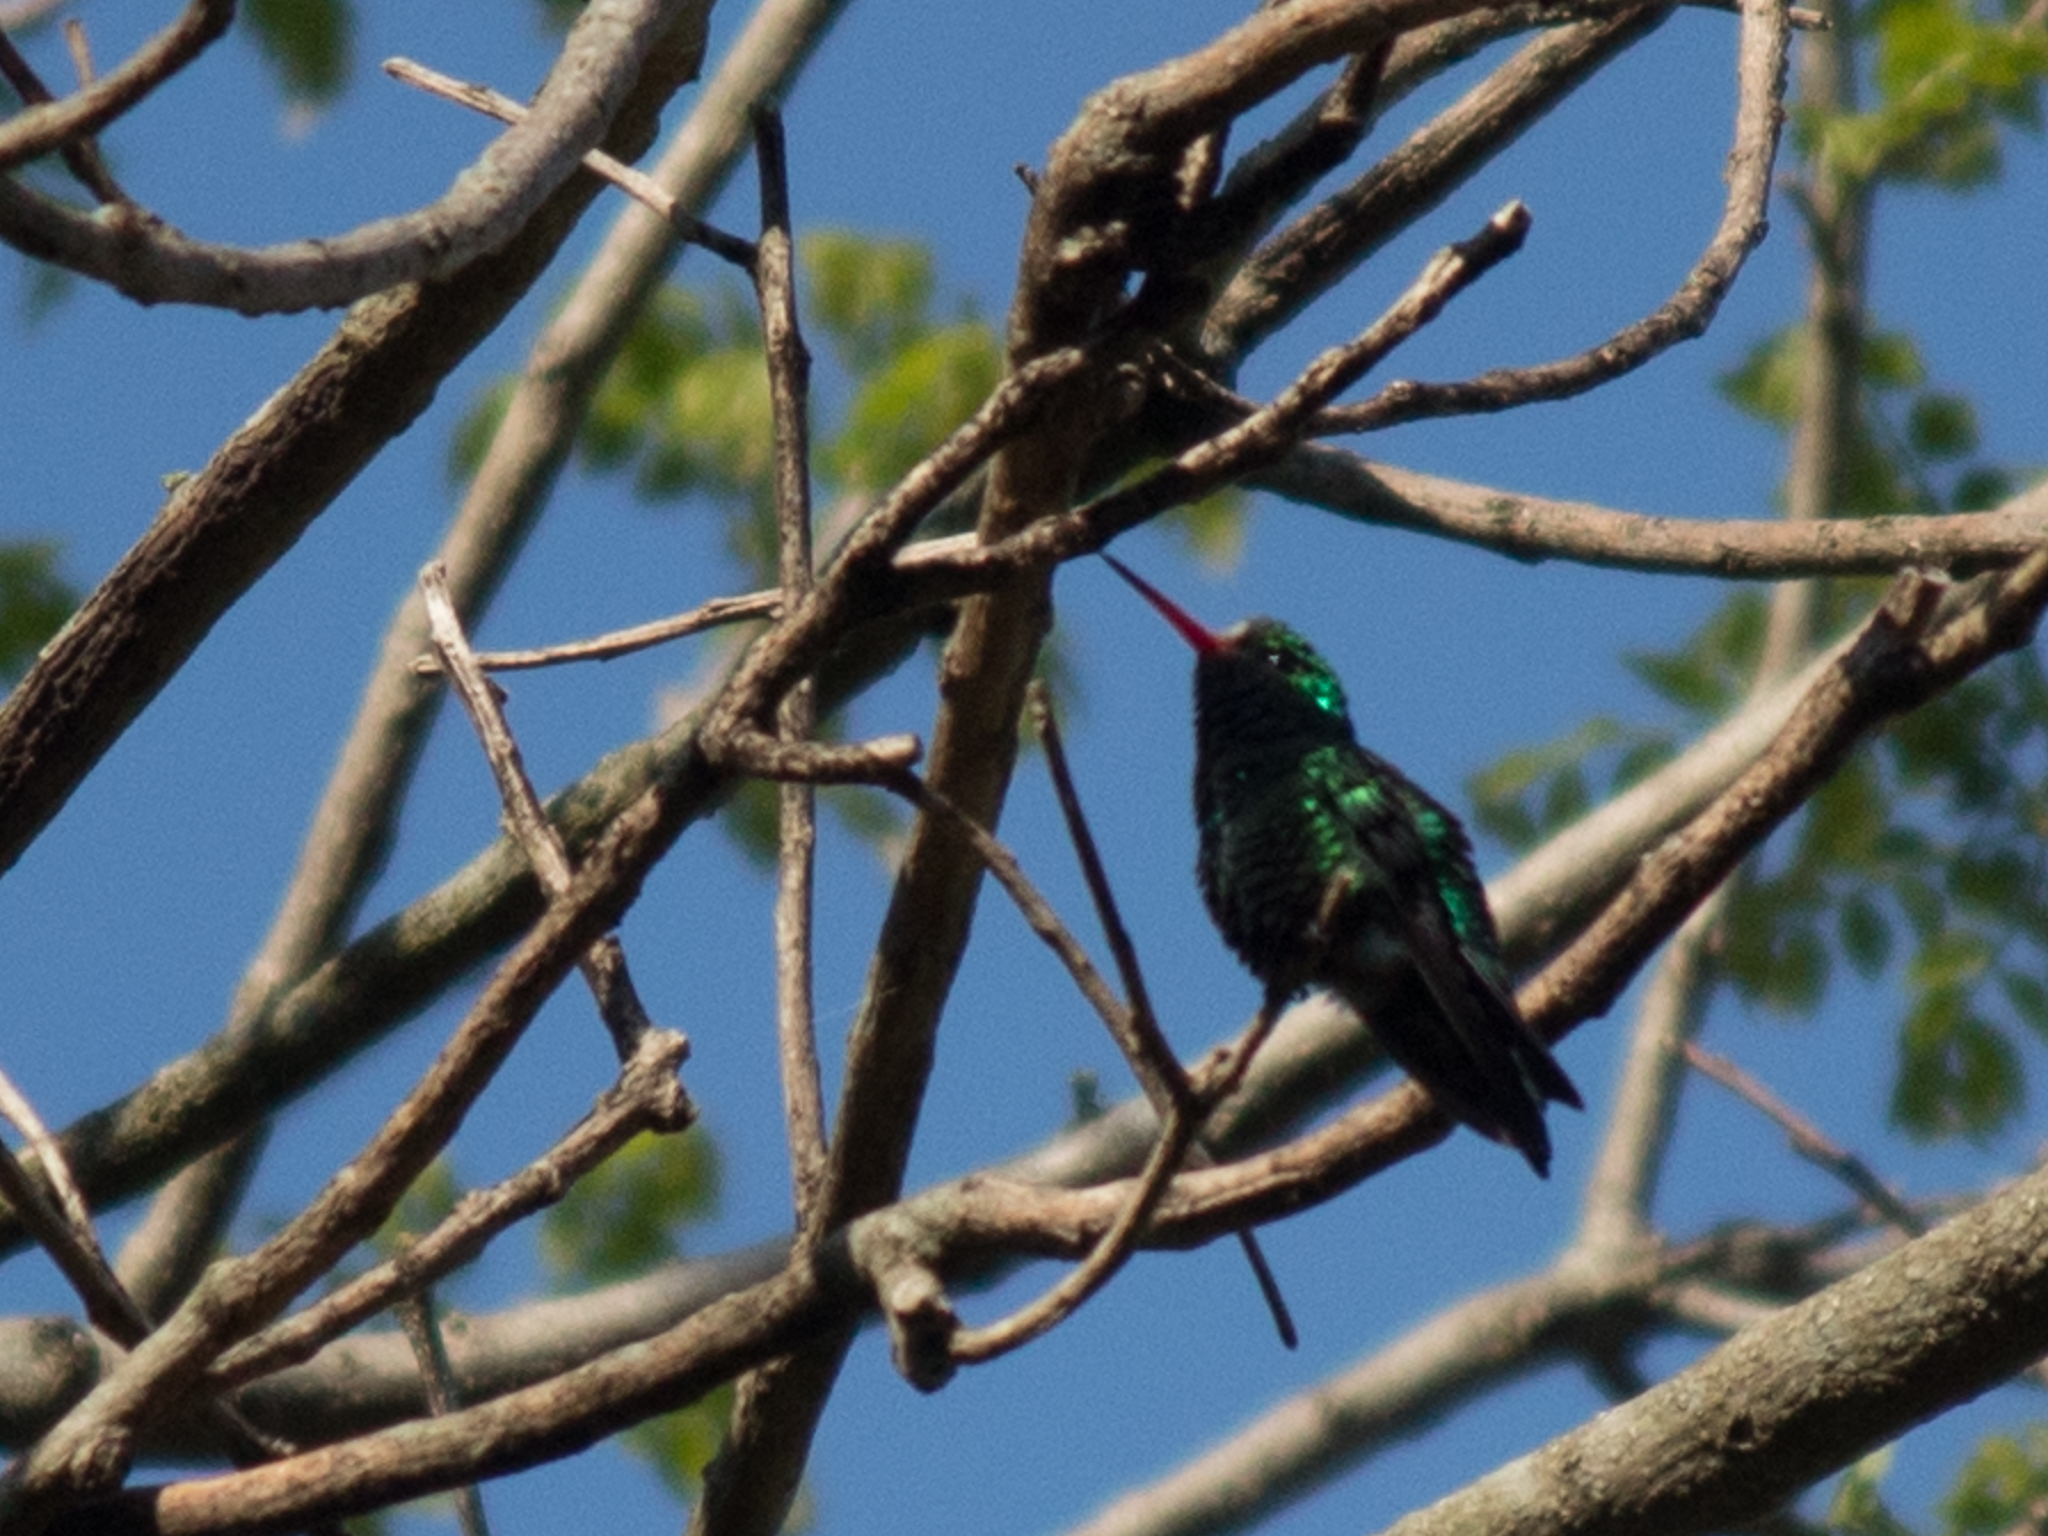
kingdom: Animalia
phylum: Chordata
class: Aves
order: Apodiformes
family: Trochilidae
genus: Chlorostilbon
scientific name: Chlorostilbon lucidus
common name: Glittering-bellied emerald
